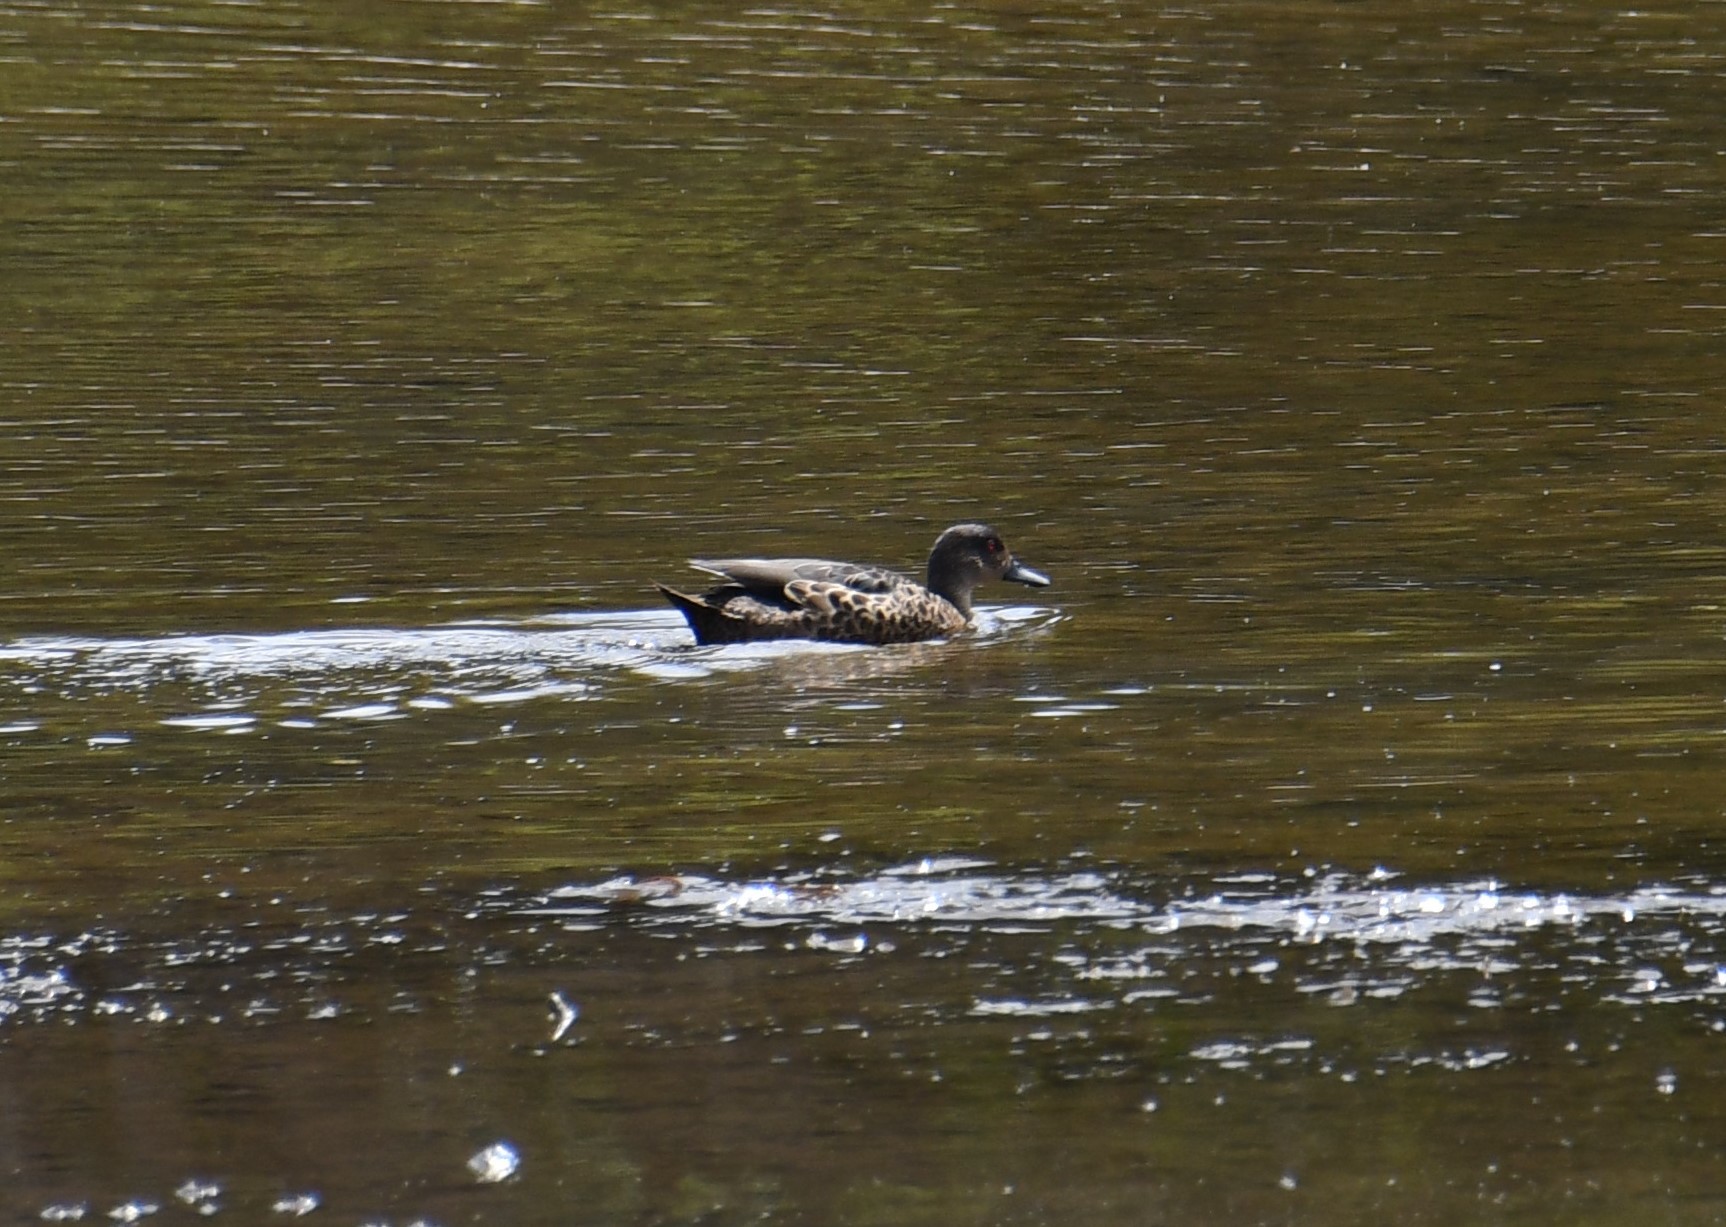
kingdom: Animalia
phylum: Chordata
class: Aves
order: Anseriformes
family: Anatidae
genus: Anas
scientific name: Anas castanea
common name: Chestnut teal
